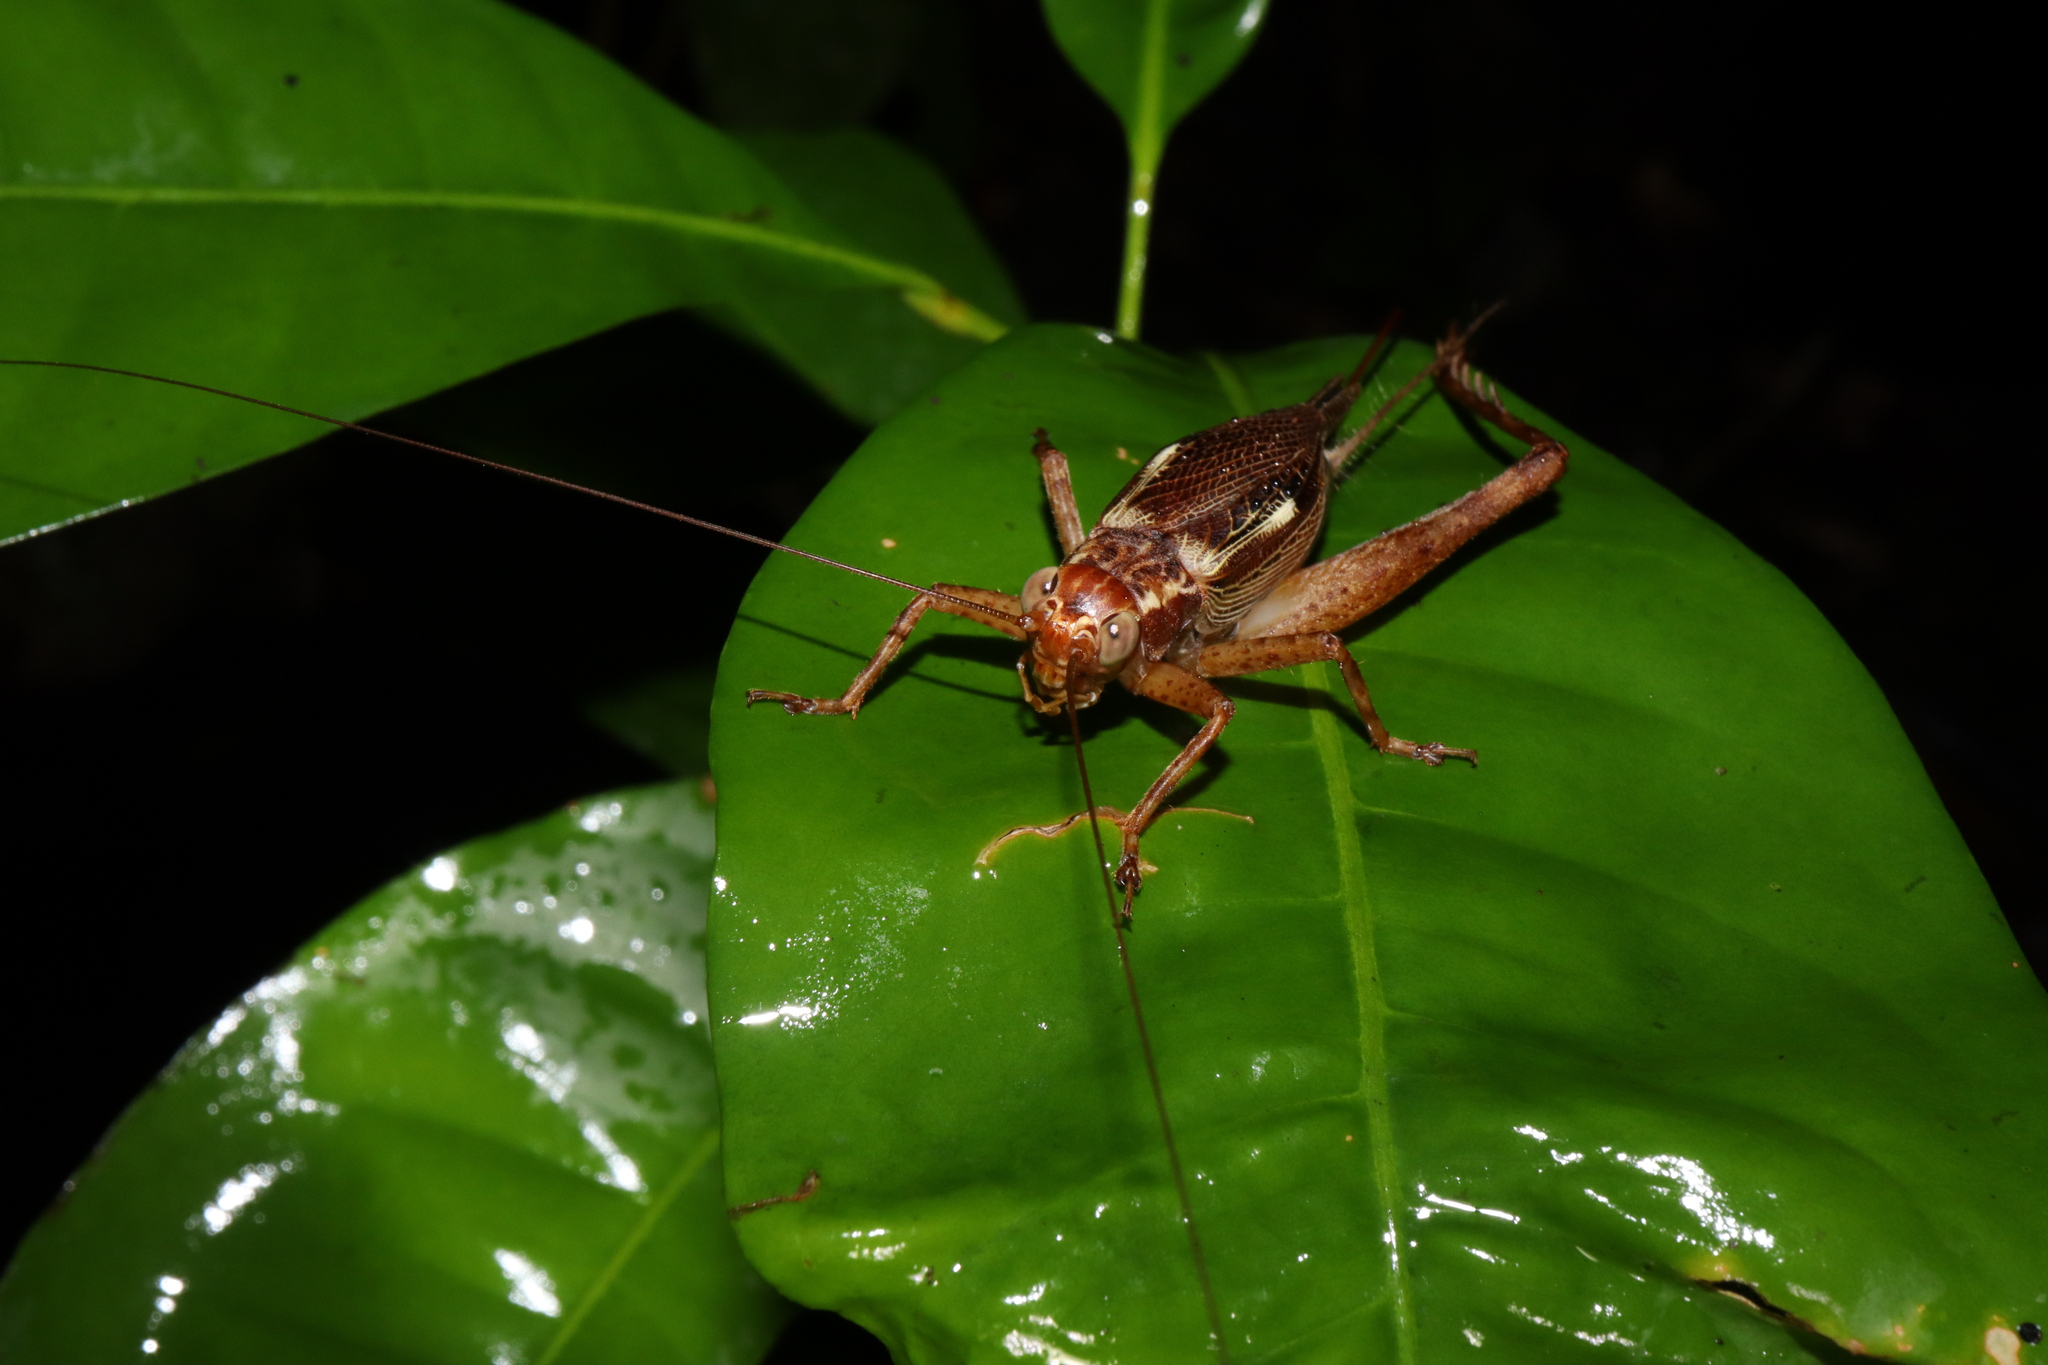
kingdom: Animalia
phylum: Arthropoda
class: Insecta
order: Orthoptera
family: Gryllidae
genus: Cardiodactylus
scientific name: Cardiodactylus novaeguineae
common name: Sad cricket
